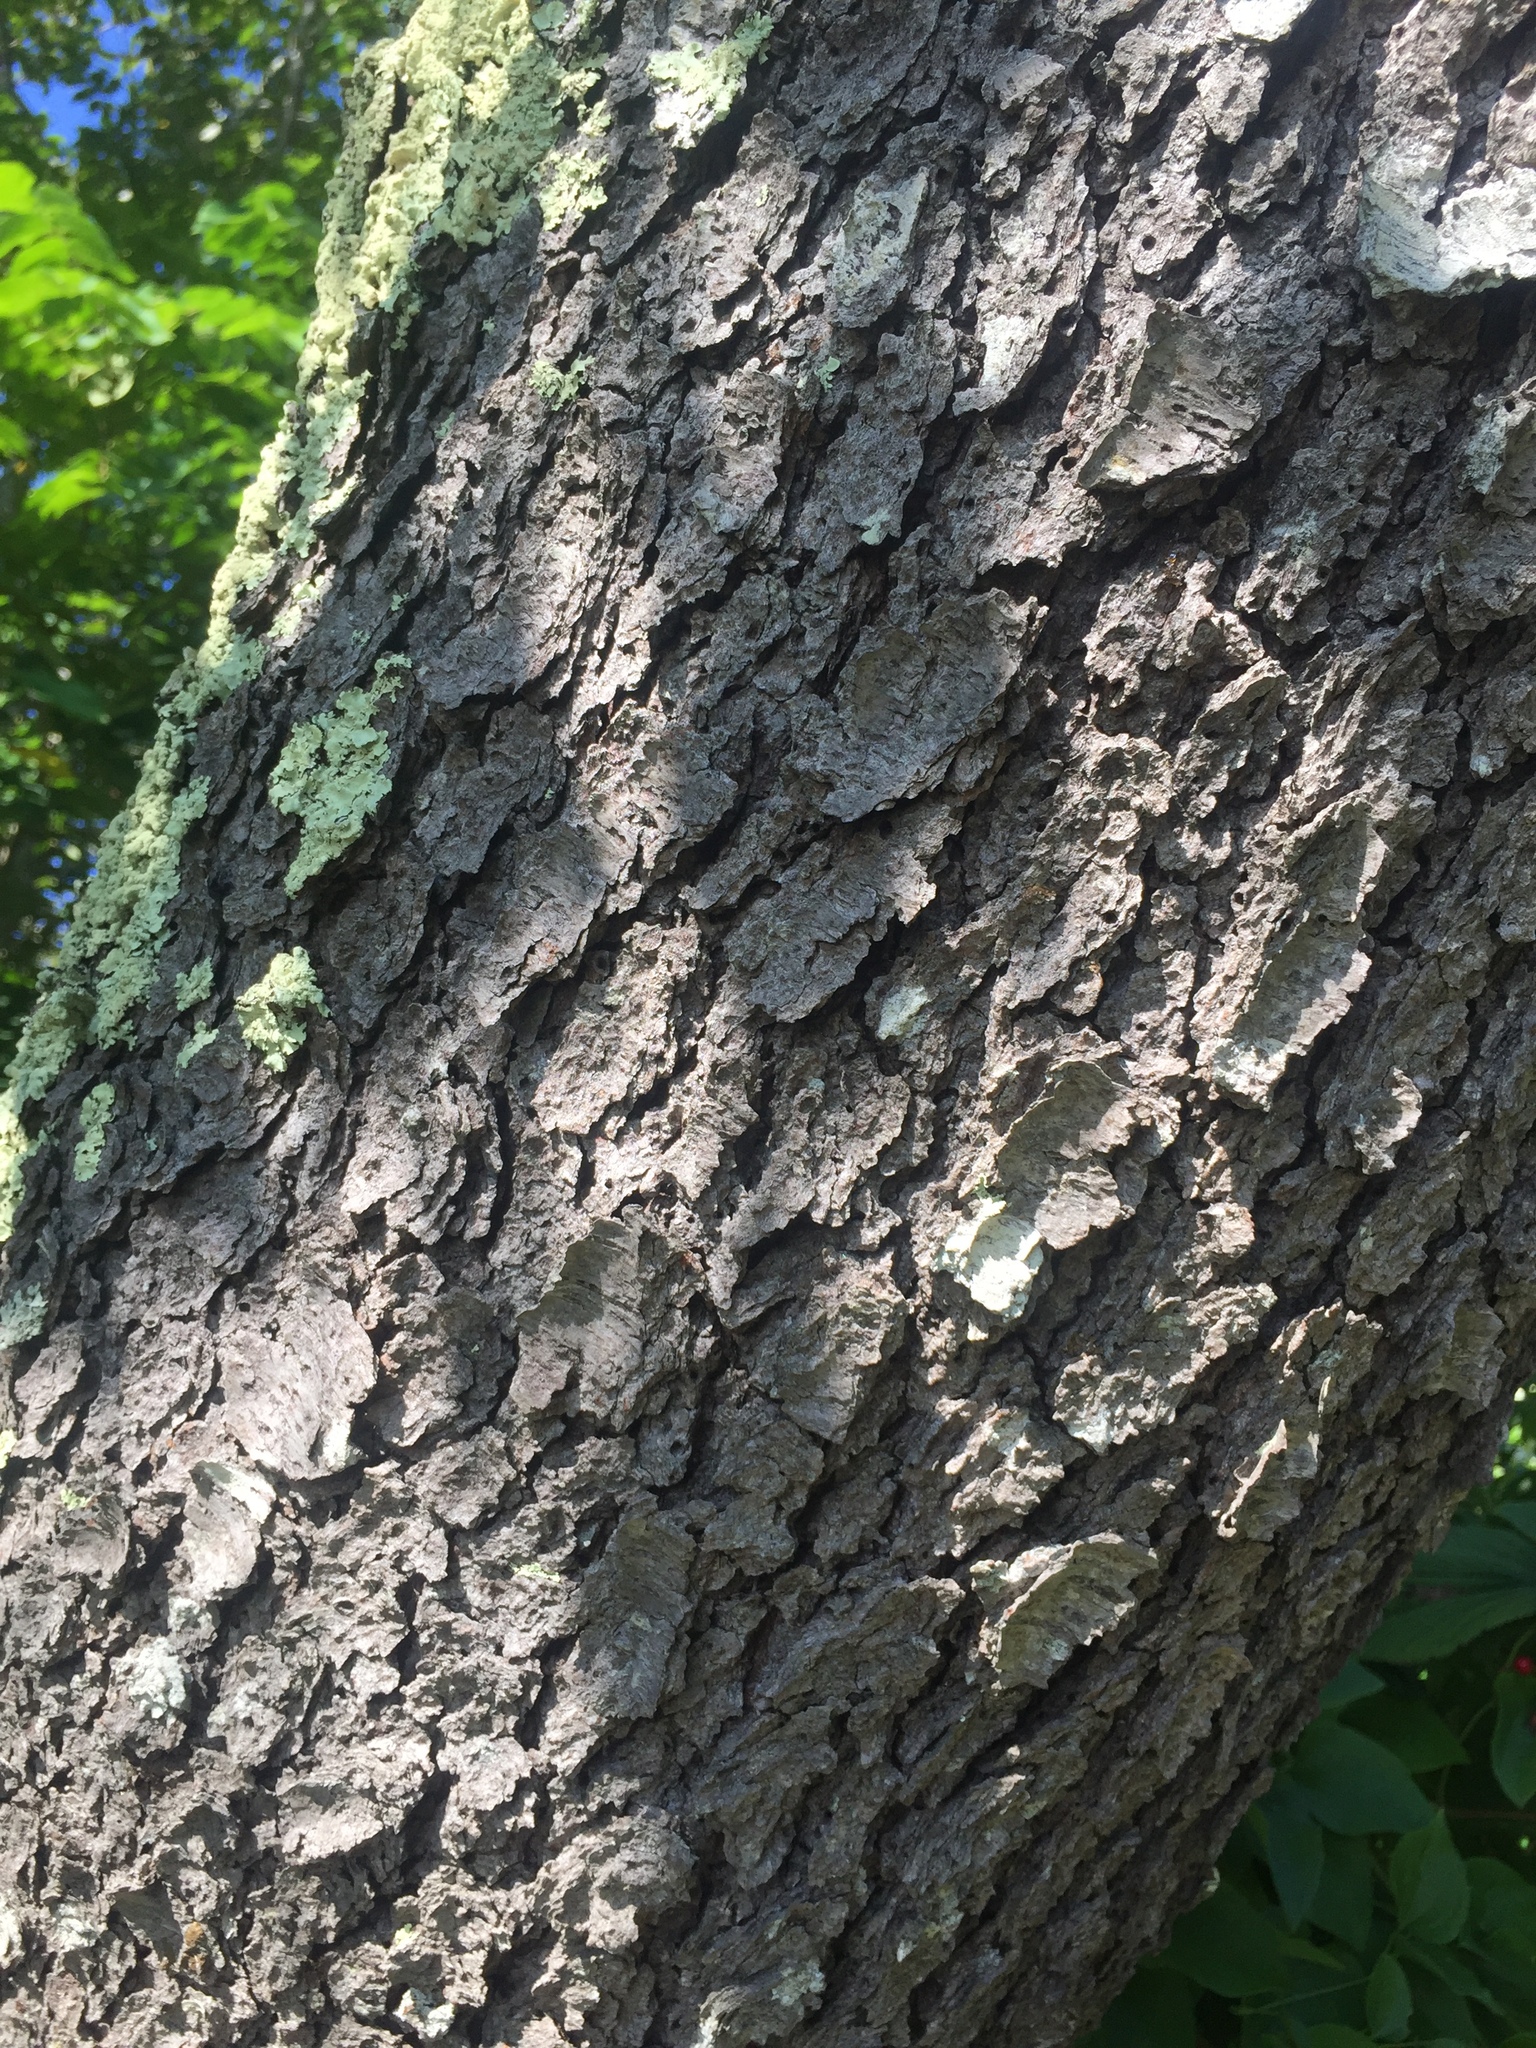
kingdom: Plantae
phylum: Tracheophyta
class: Magnoliopsida
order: Rosales
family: Rosaceae
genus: Prunus
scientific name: Prunus serotina
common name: Black cherry
